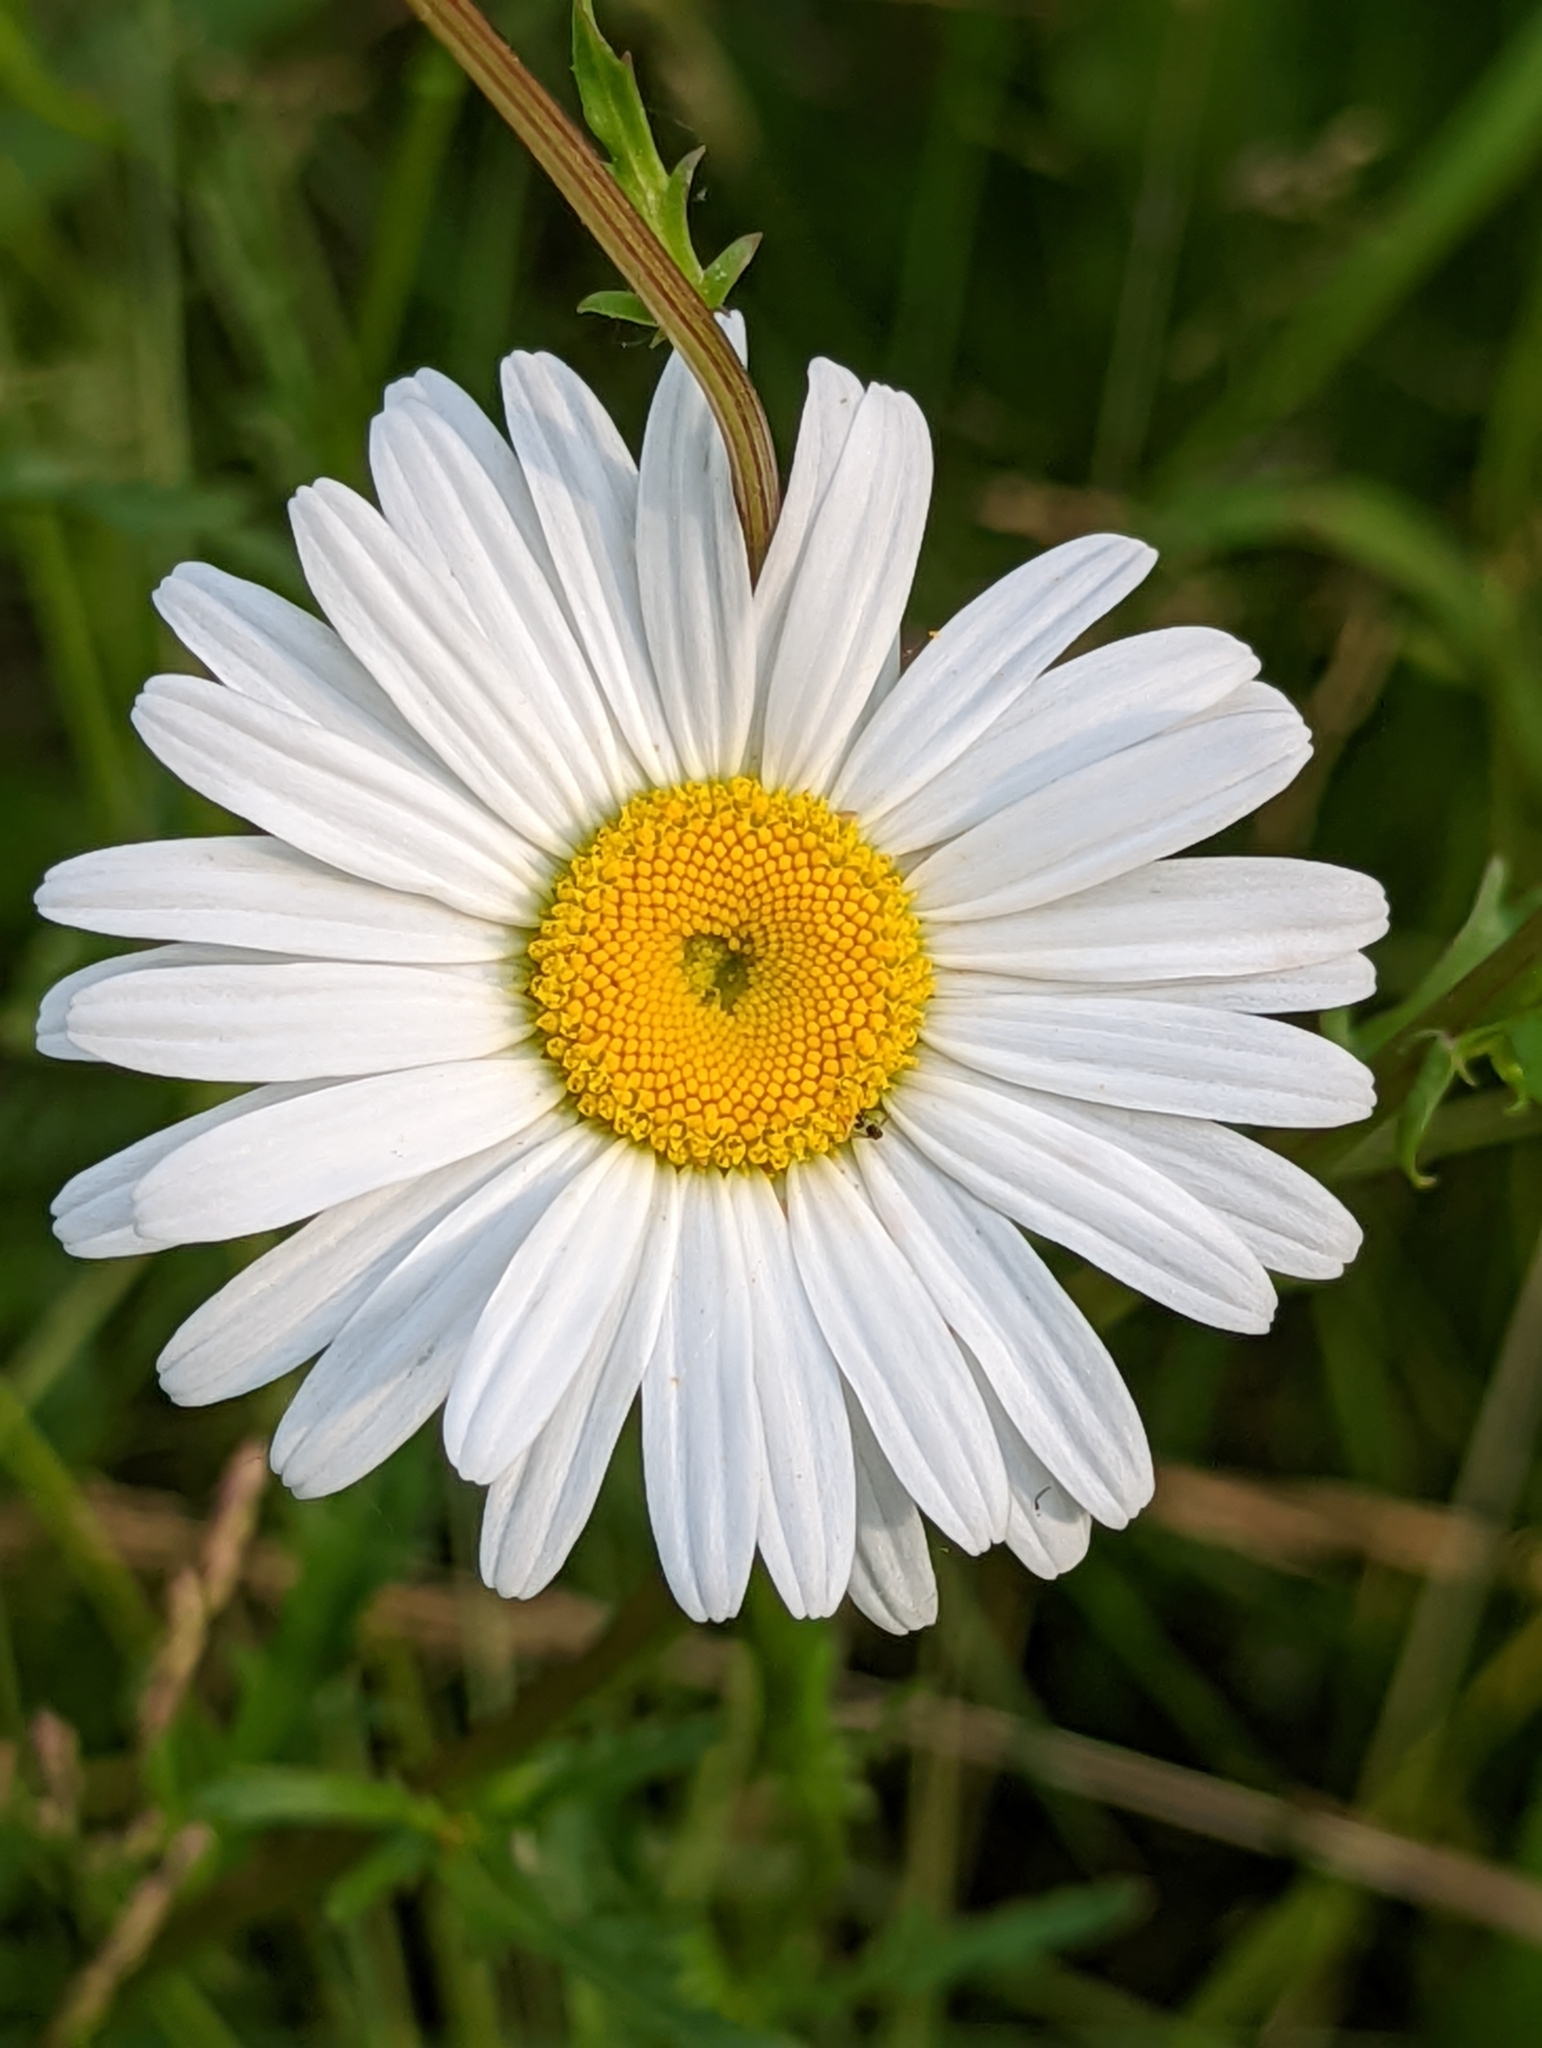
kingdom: Plantae
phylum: Tracheophyta
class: Magnoliopsida
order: Asterales
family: Asteraceae
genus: Leucanthemum
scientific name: Leucanthemum vulgare
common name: Oxeye daisy
